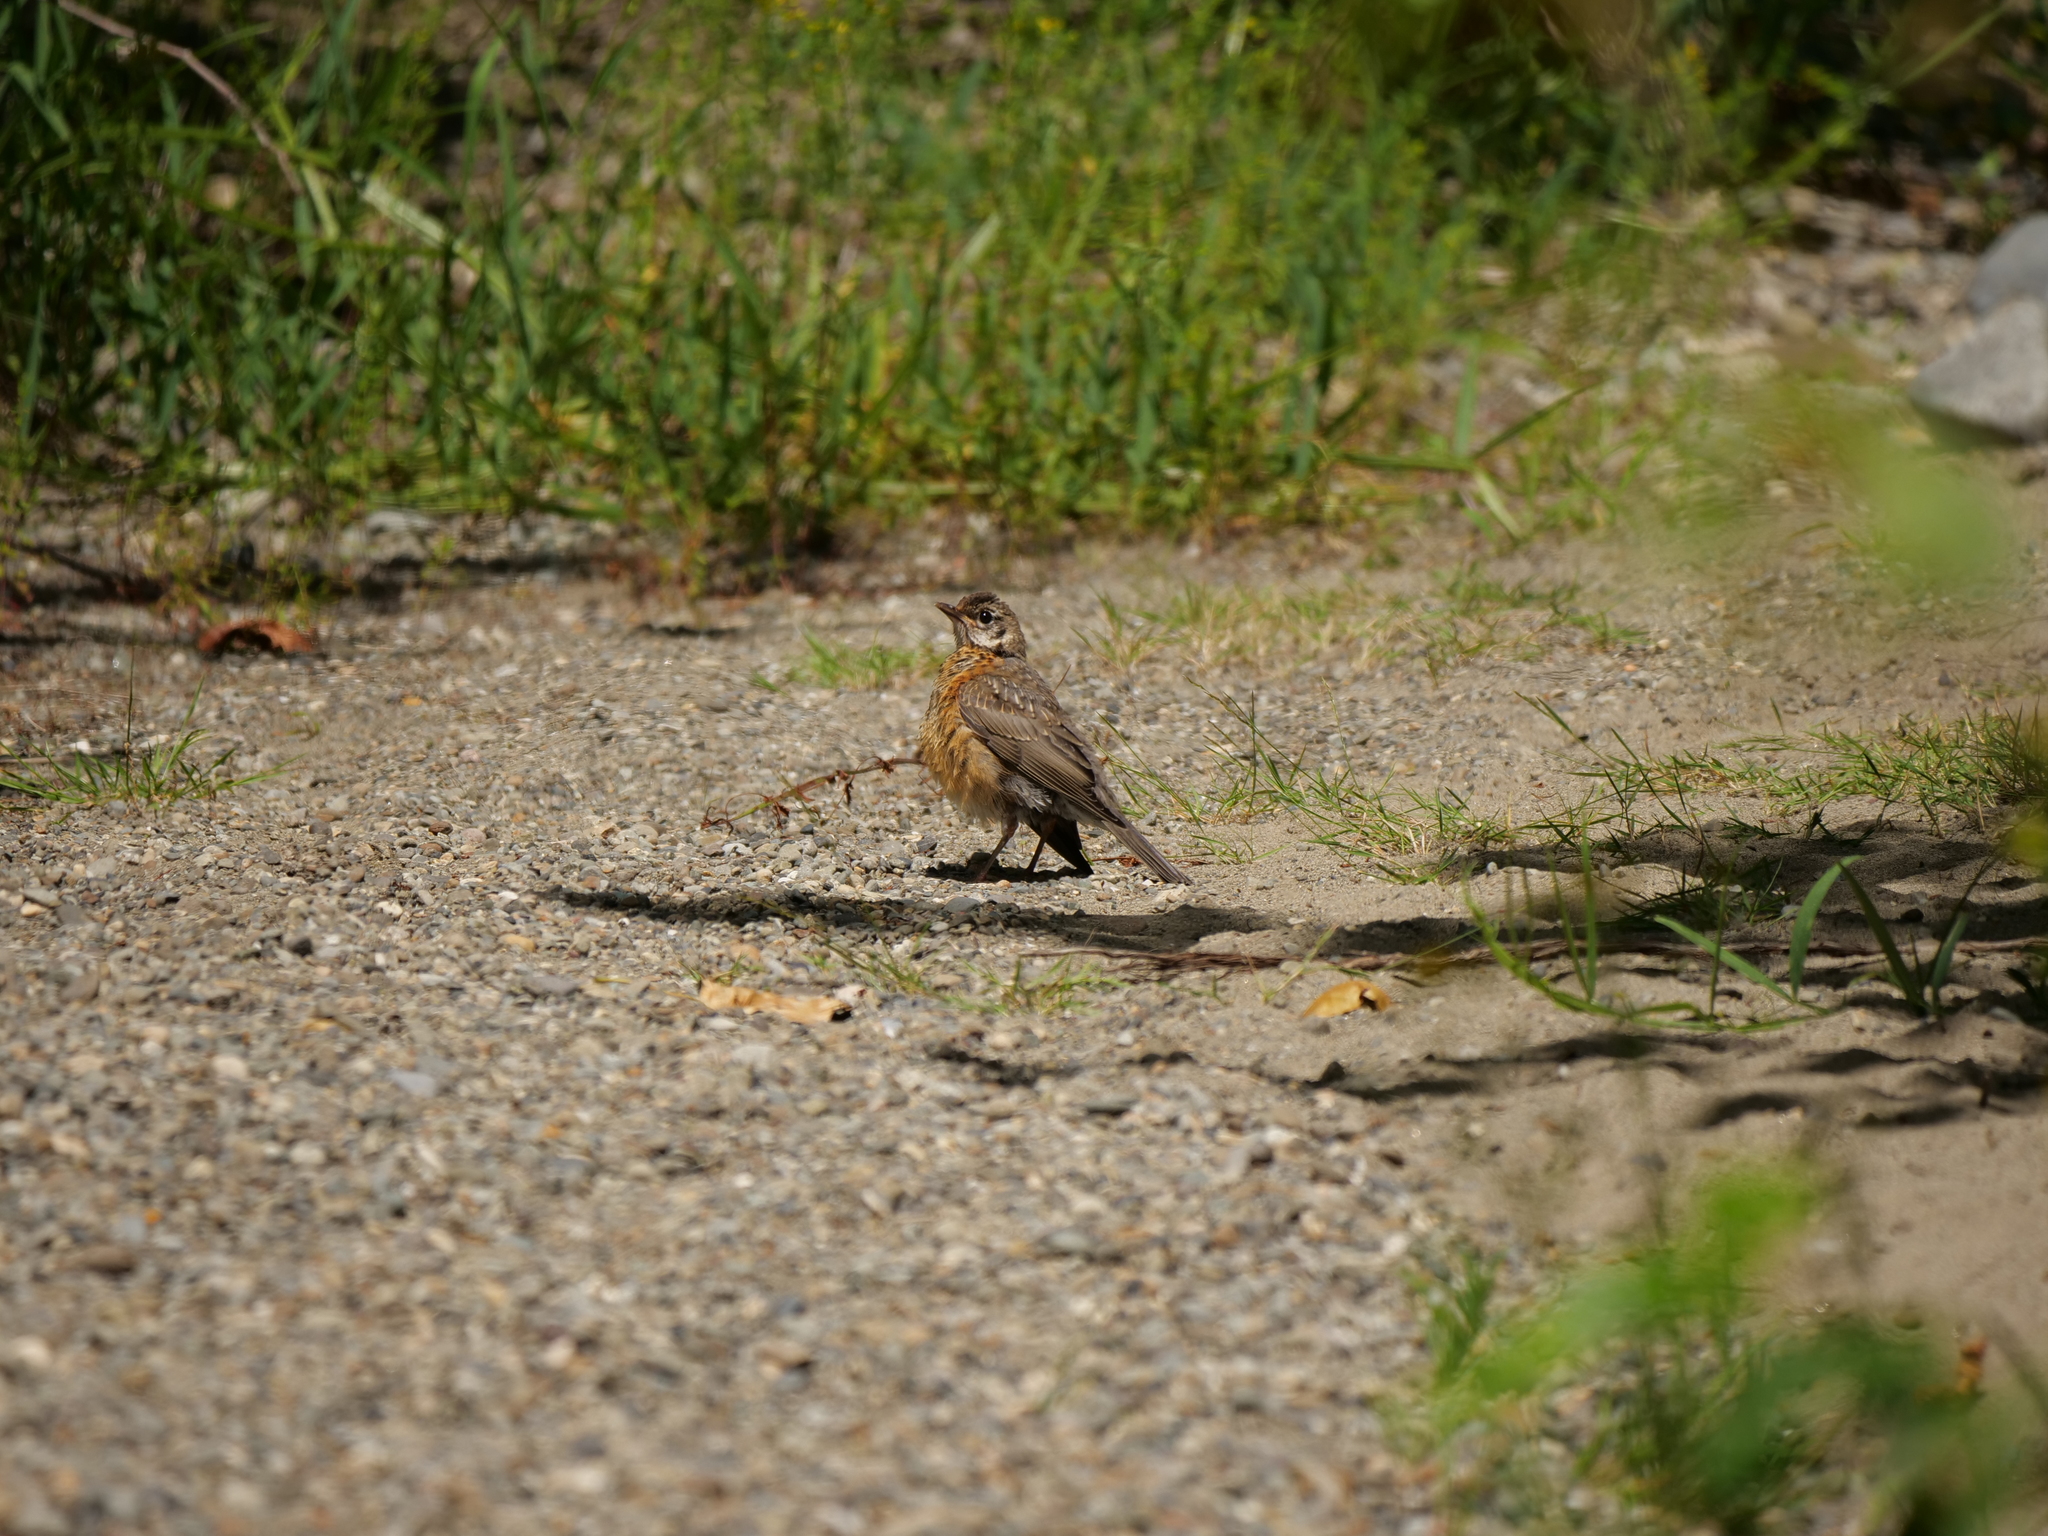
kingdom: Animalia
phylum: Chordata
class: Aves
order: Passeriformes
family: Turdidae
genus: Turdus
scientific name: Turdus migratorius
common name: American robin
